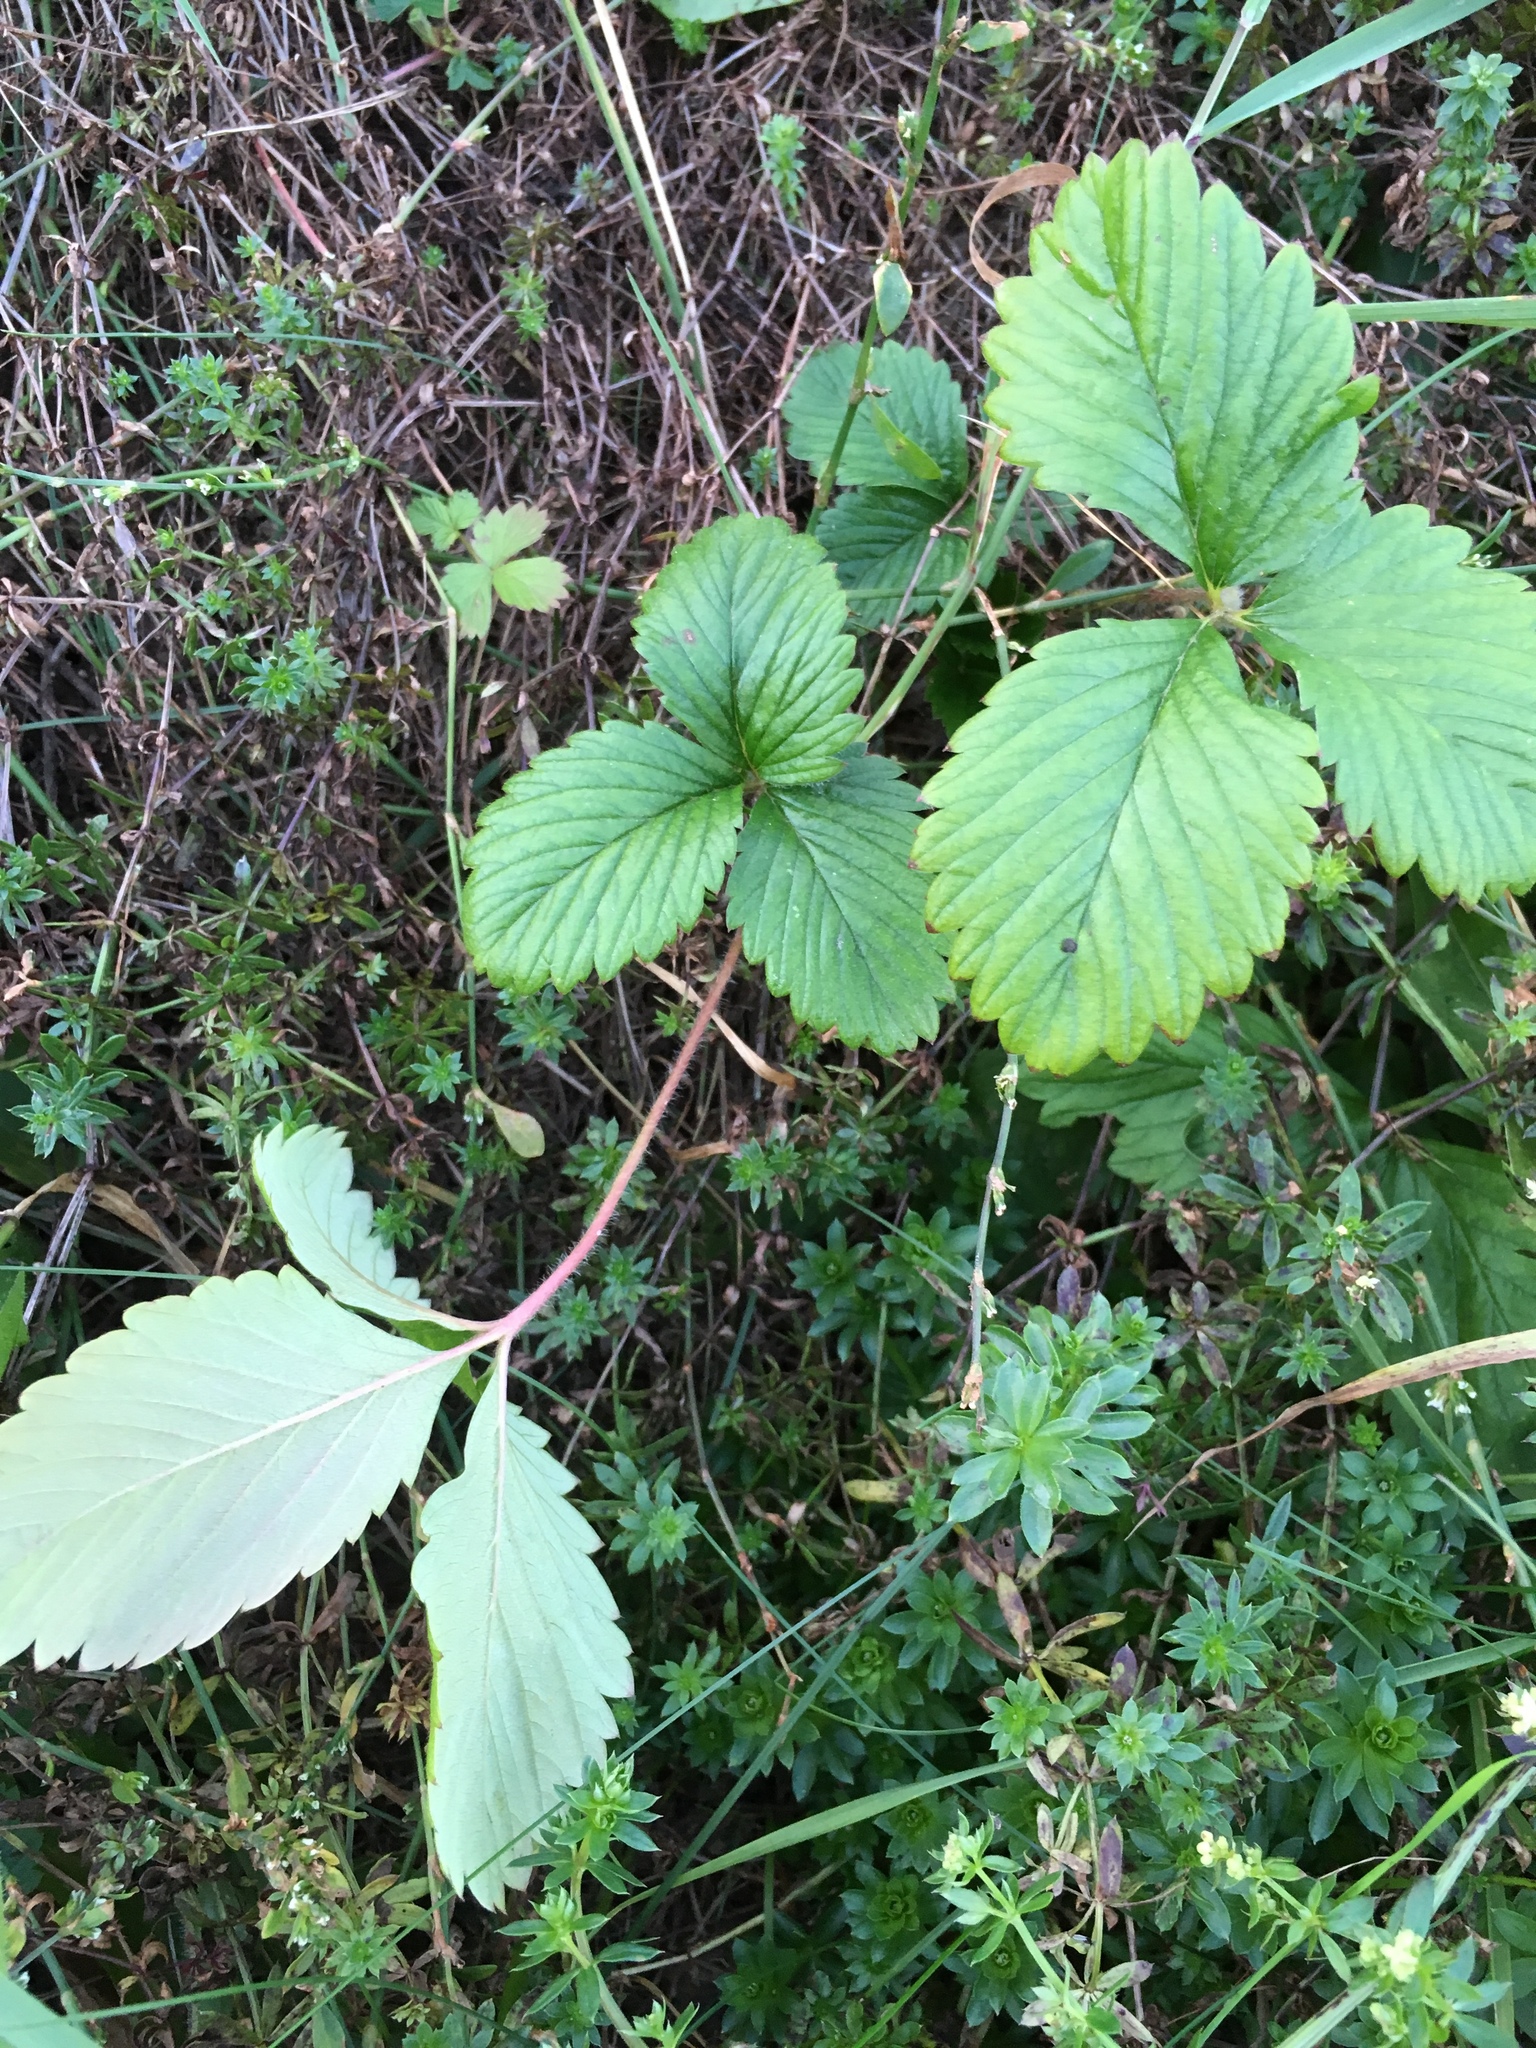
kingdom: Plantae
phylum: Tracheophyta
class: Magnoliopsida
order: Rosales
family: Rosaceae
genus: Fragaria
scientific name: Fragaria vesca
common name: Wild strawberry
